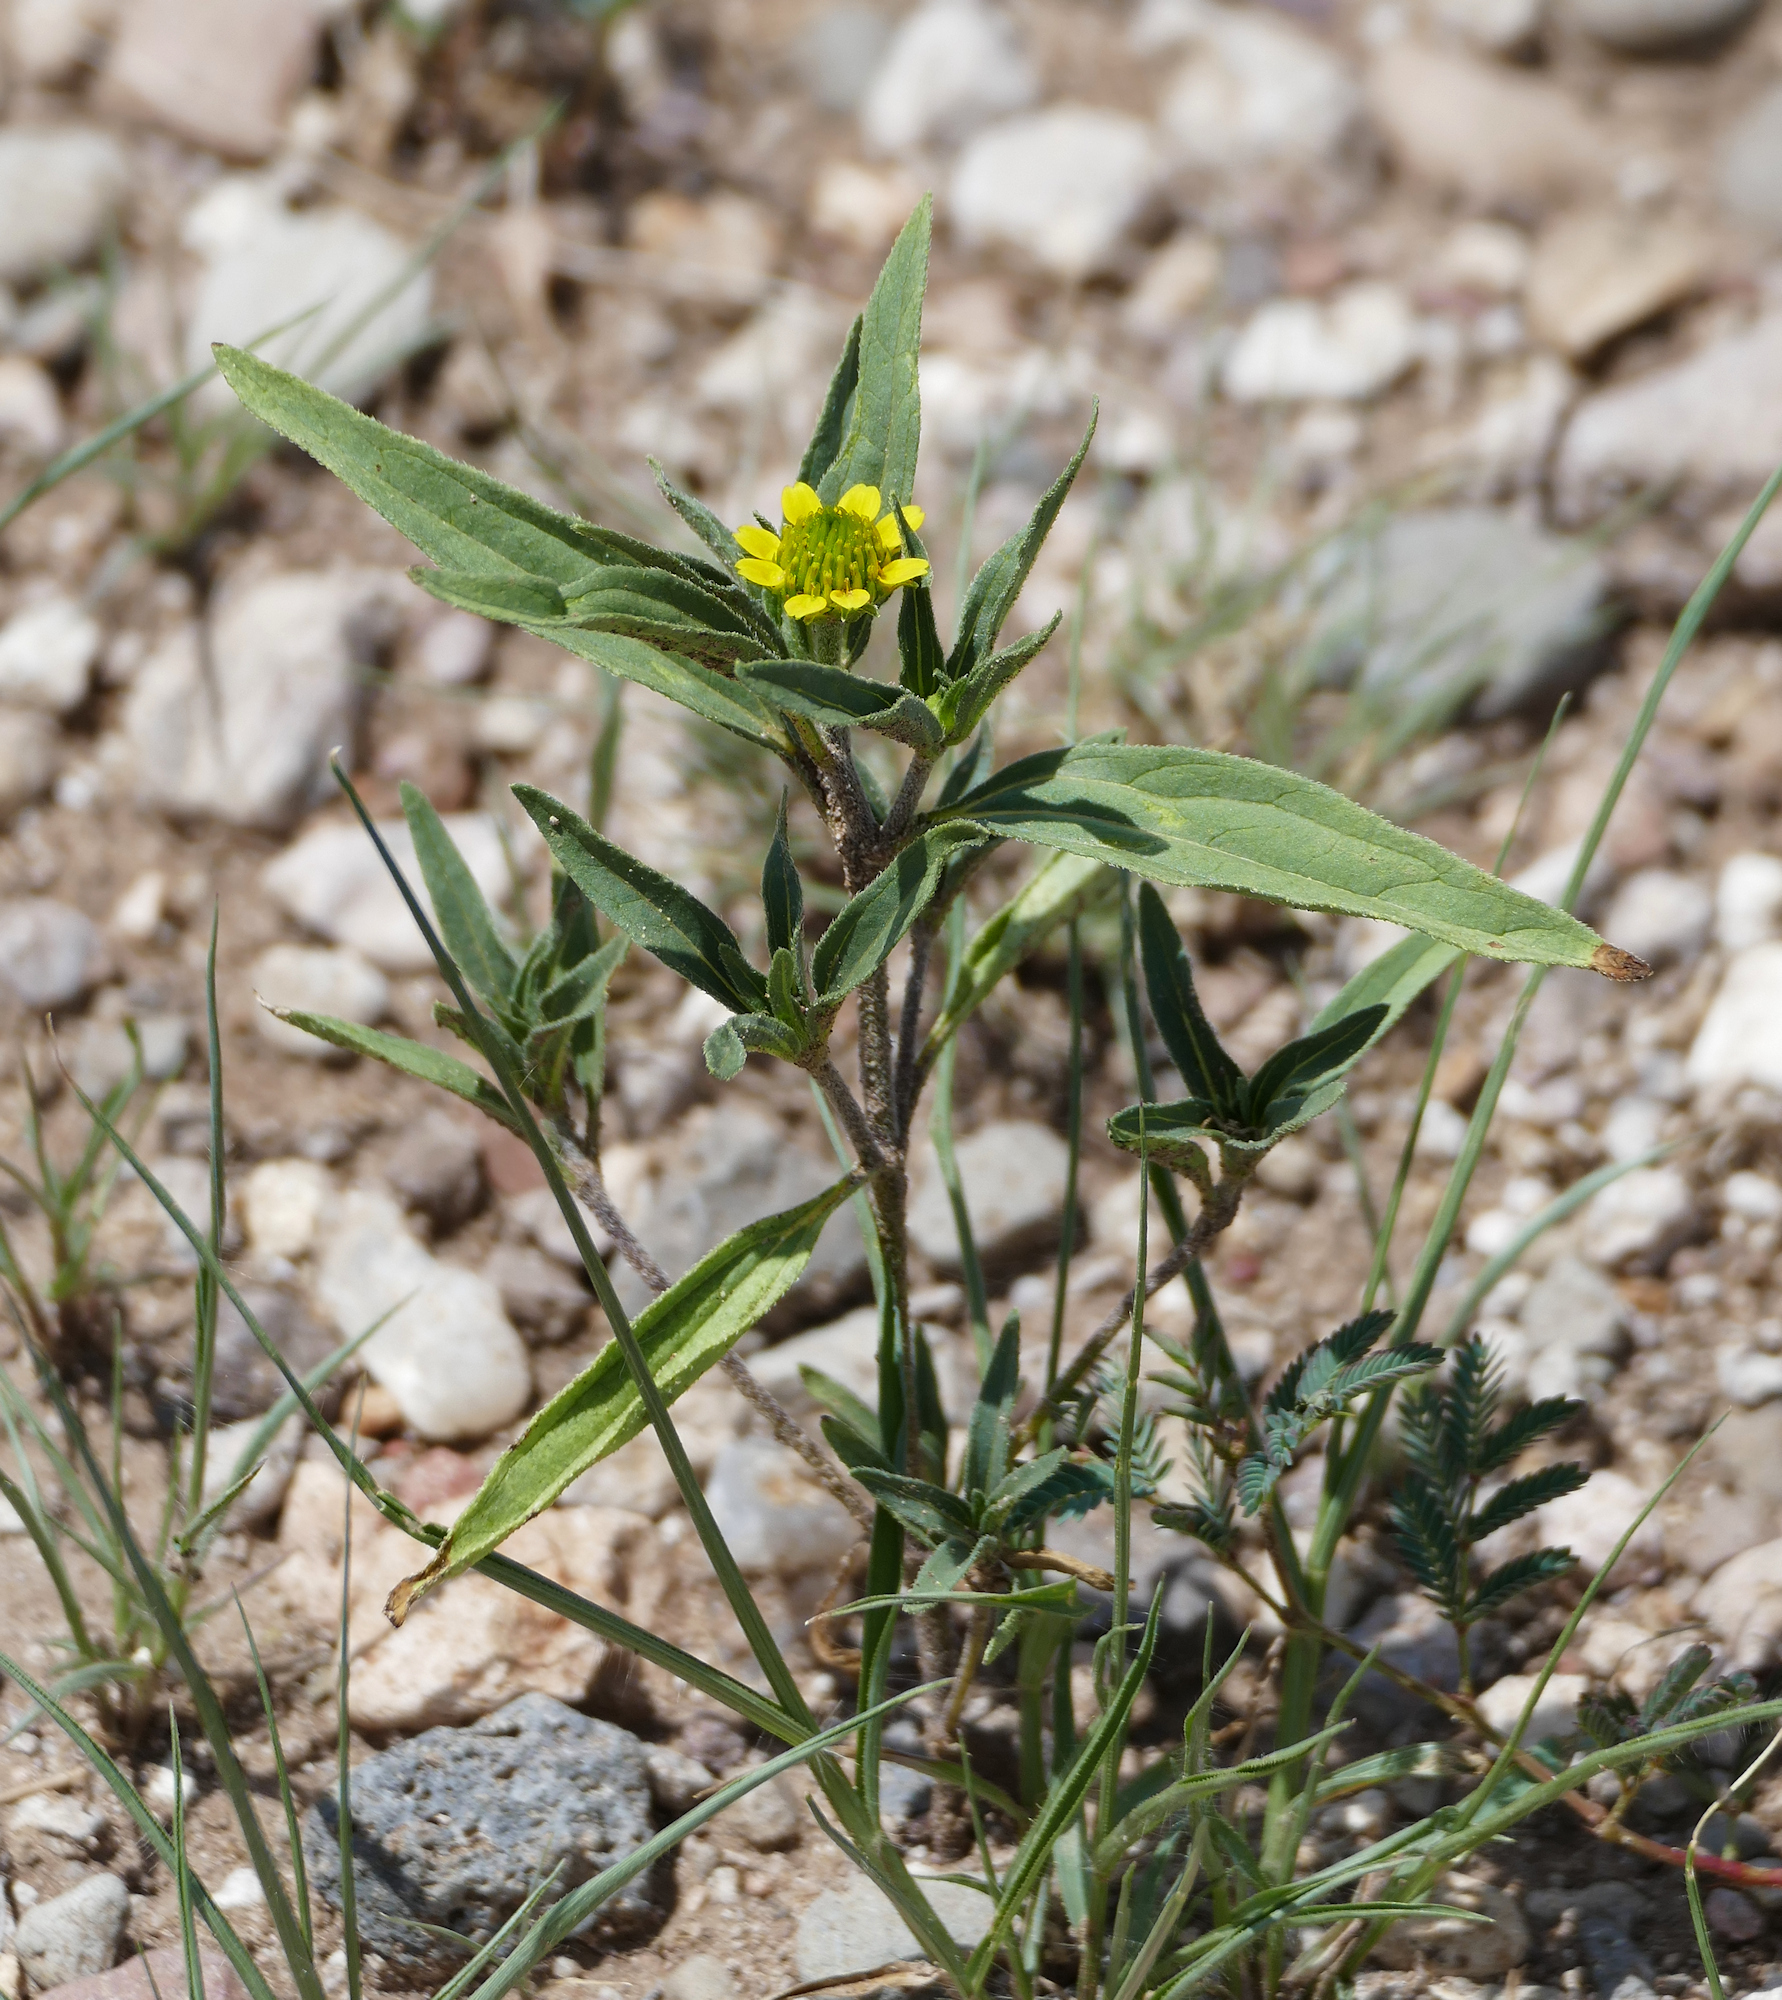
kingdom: Plantae
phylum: Tracheophyta
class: Magnoliopsida
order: Asterales
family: Asteraceae
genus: Sanvitalia
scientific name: Sanvitalia abertii
